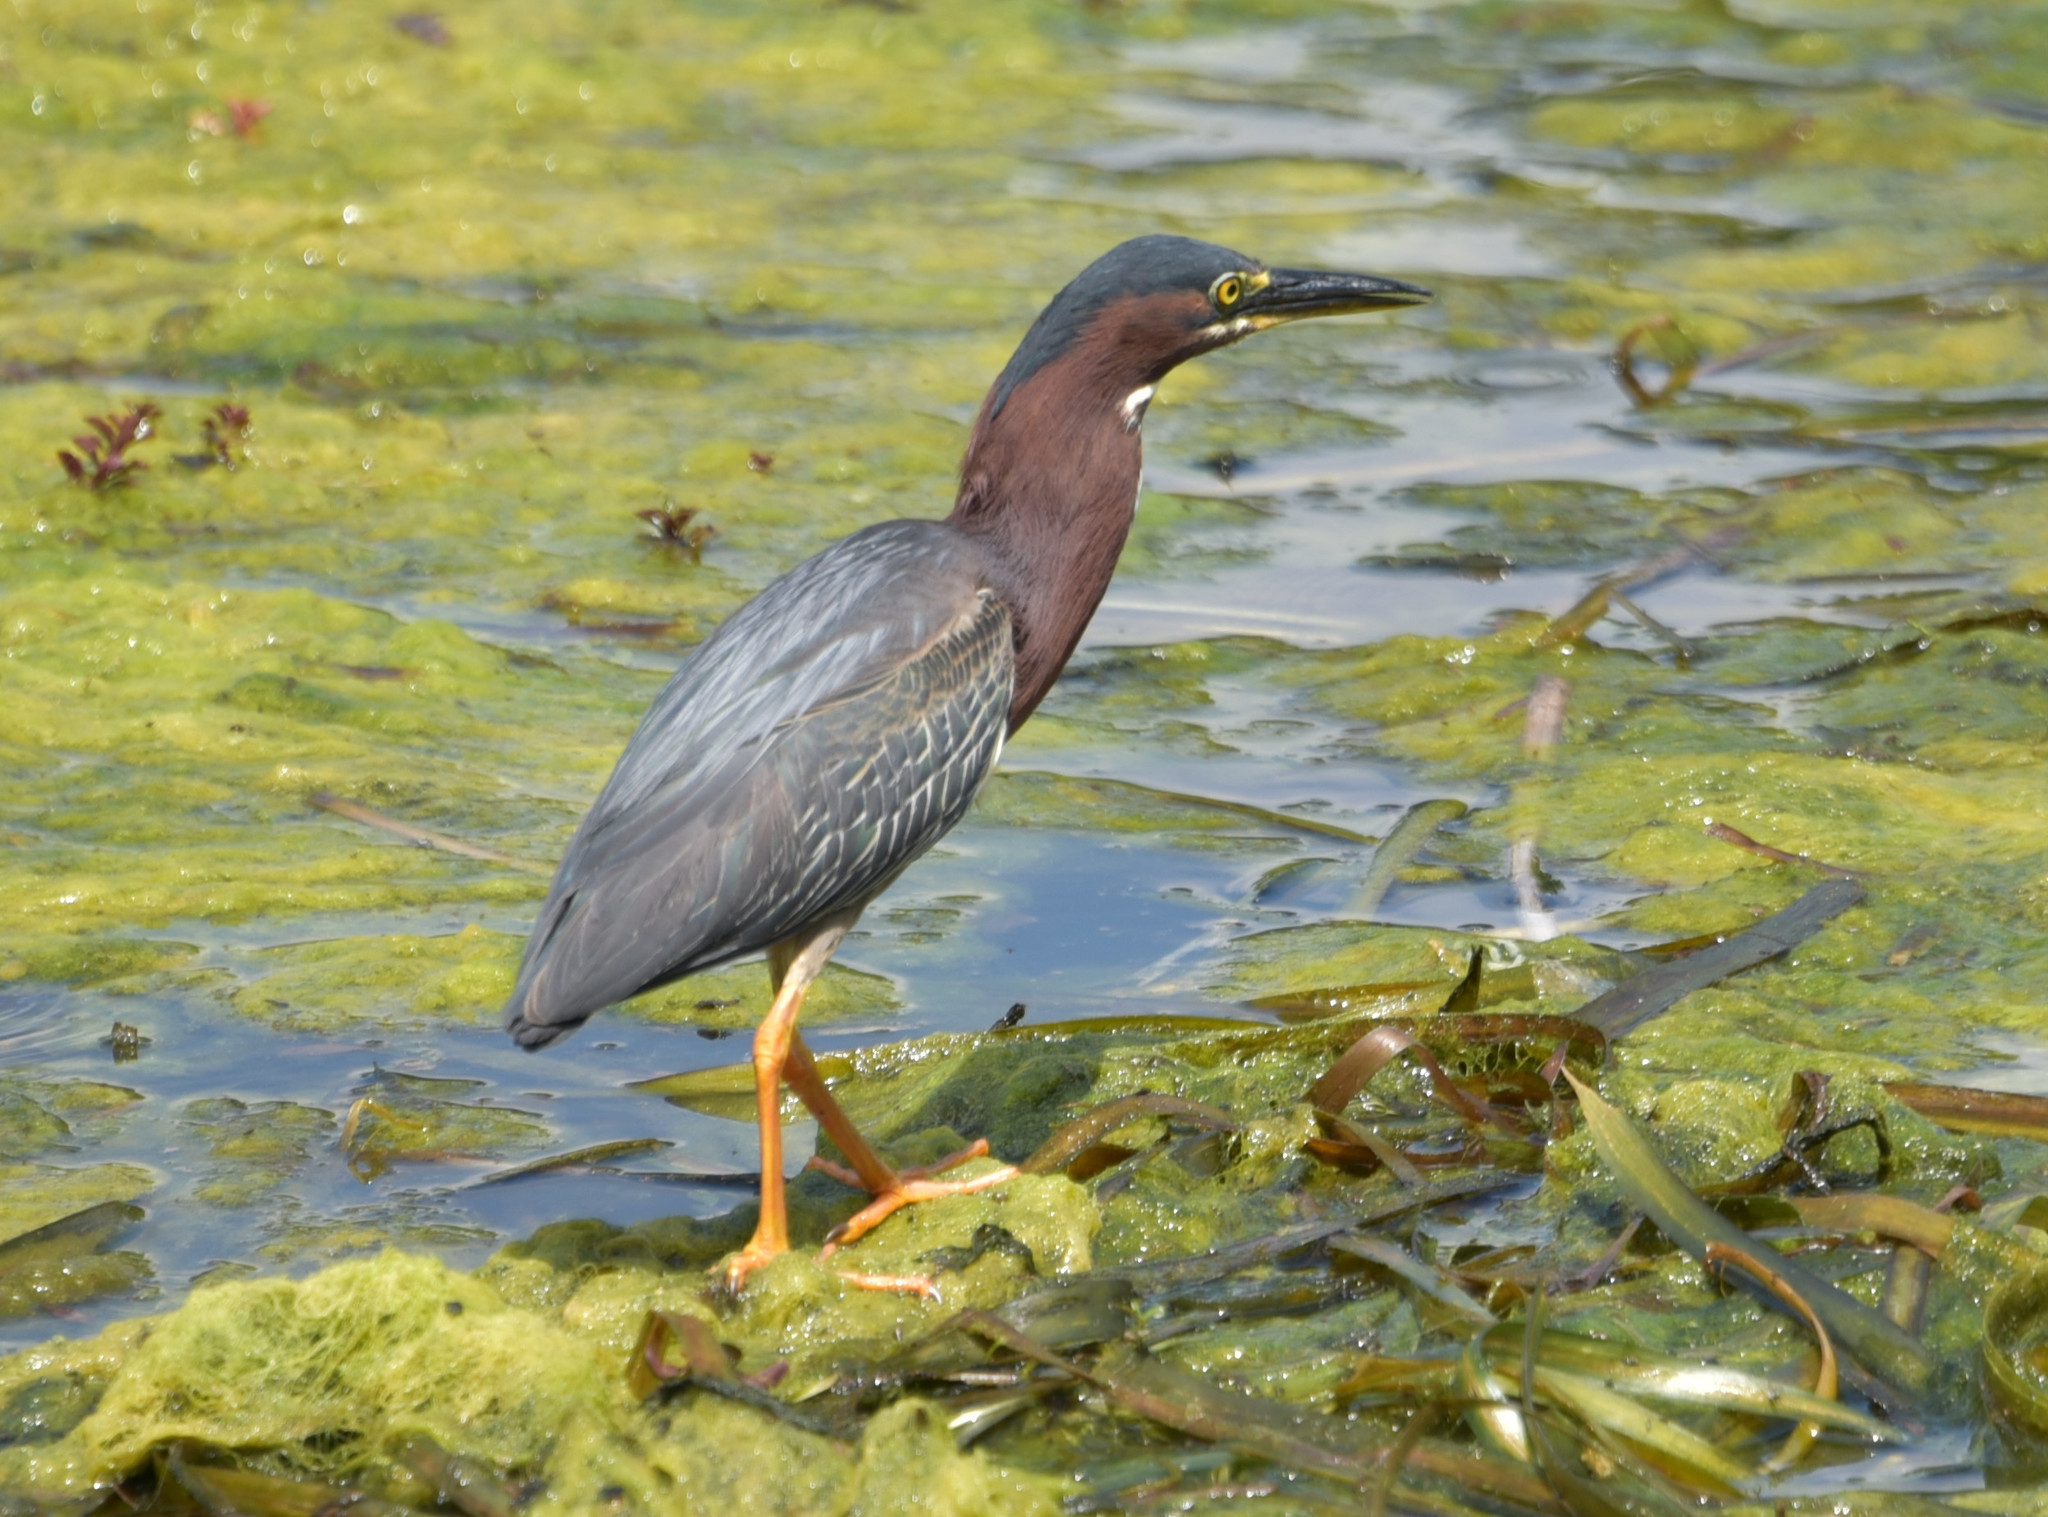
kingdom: Animalia
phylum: Chordata
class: Aves
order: Pelecaniformes
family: Ardeidae
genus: Butorides
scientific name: Butorides virescens
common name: Green heron
